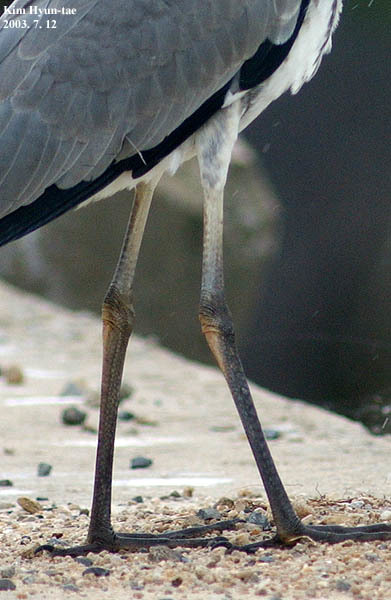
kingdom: Animalia
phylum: Chordata
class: Aves
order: Pelecaniformes
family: Ardeidae
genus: Ardea
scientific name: Ardea cinerea
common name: Grey heron
